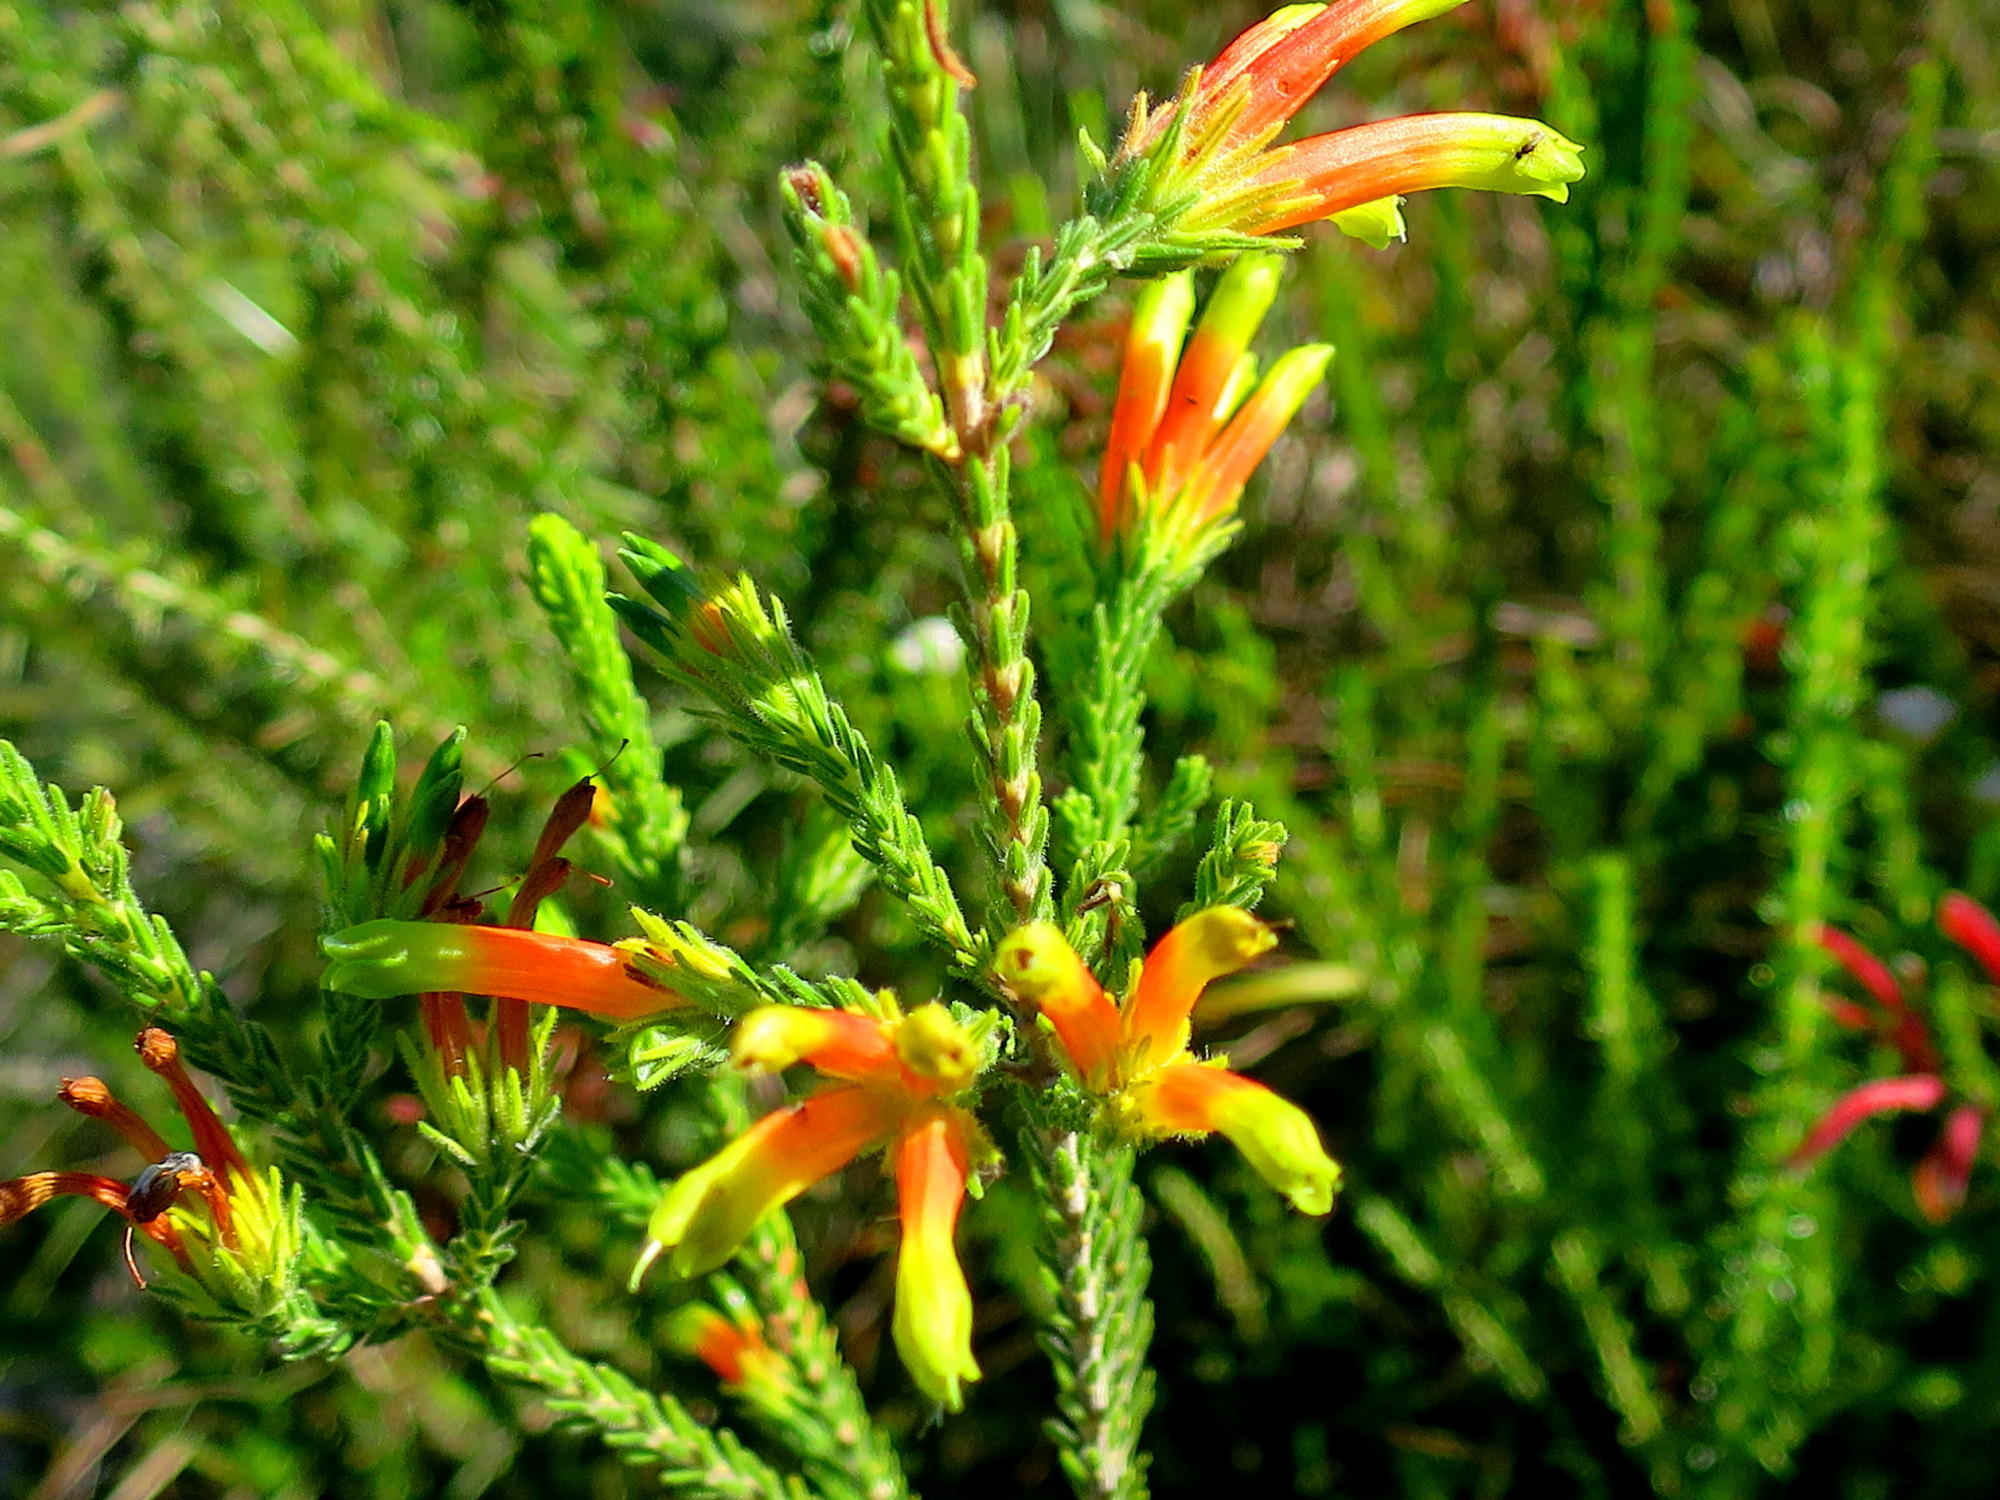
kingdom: Plantae
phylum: Tracheophyta
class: Magnoliopsida
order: Ericales
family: Ericaceae
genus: Erica
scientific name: Erica unicolor
